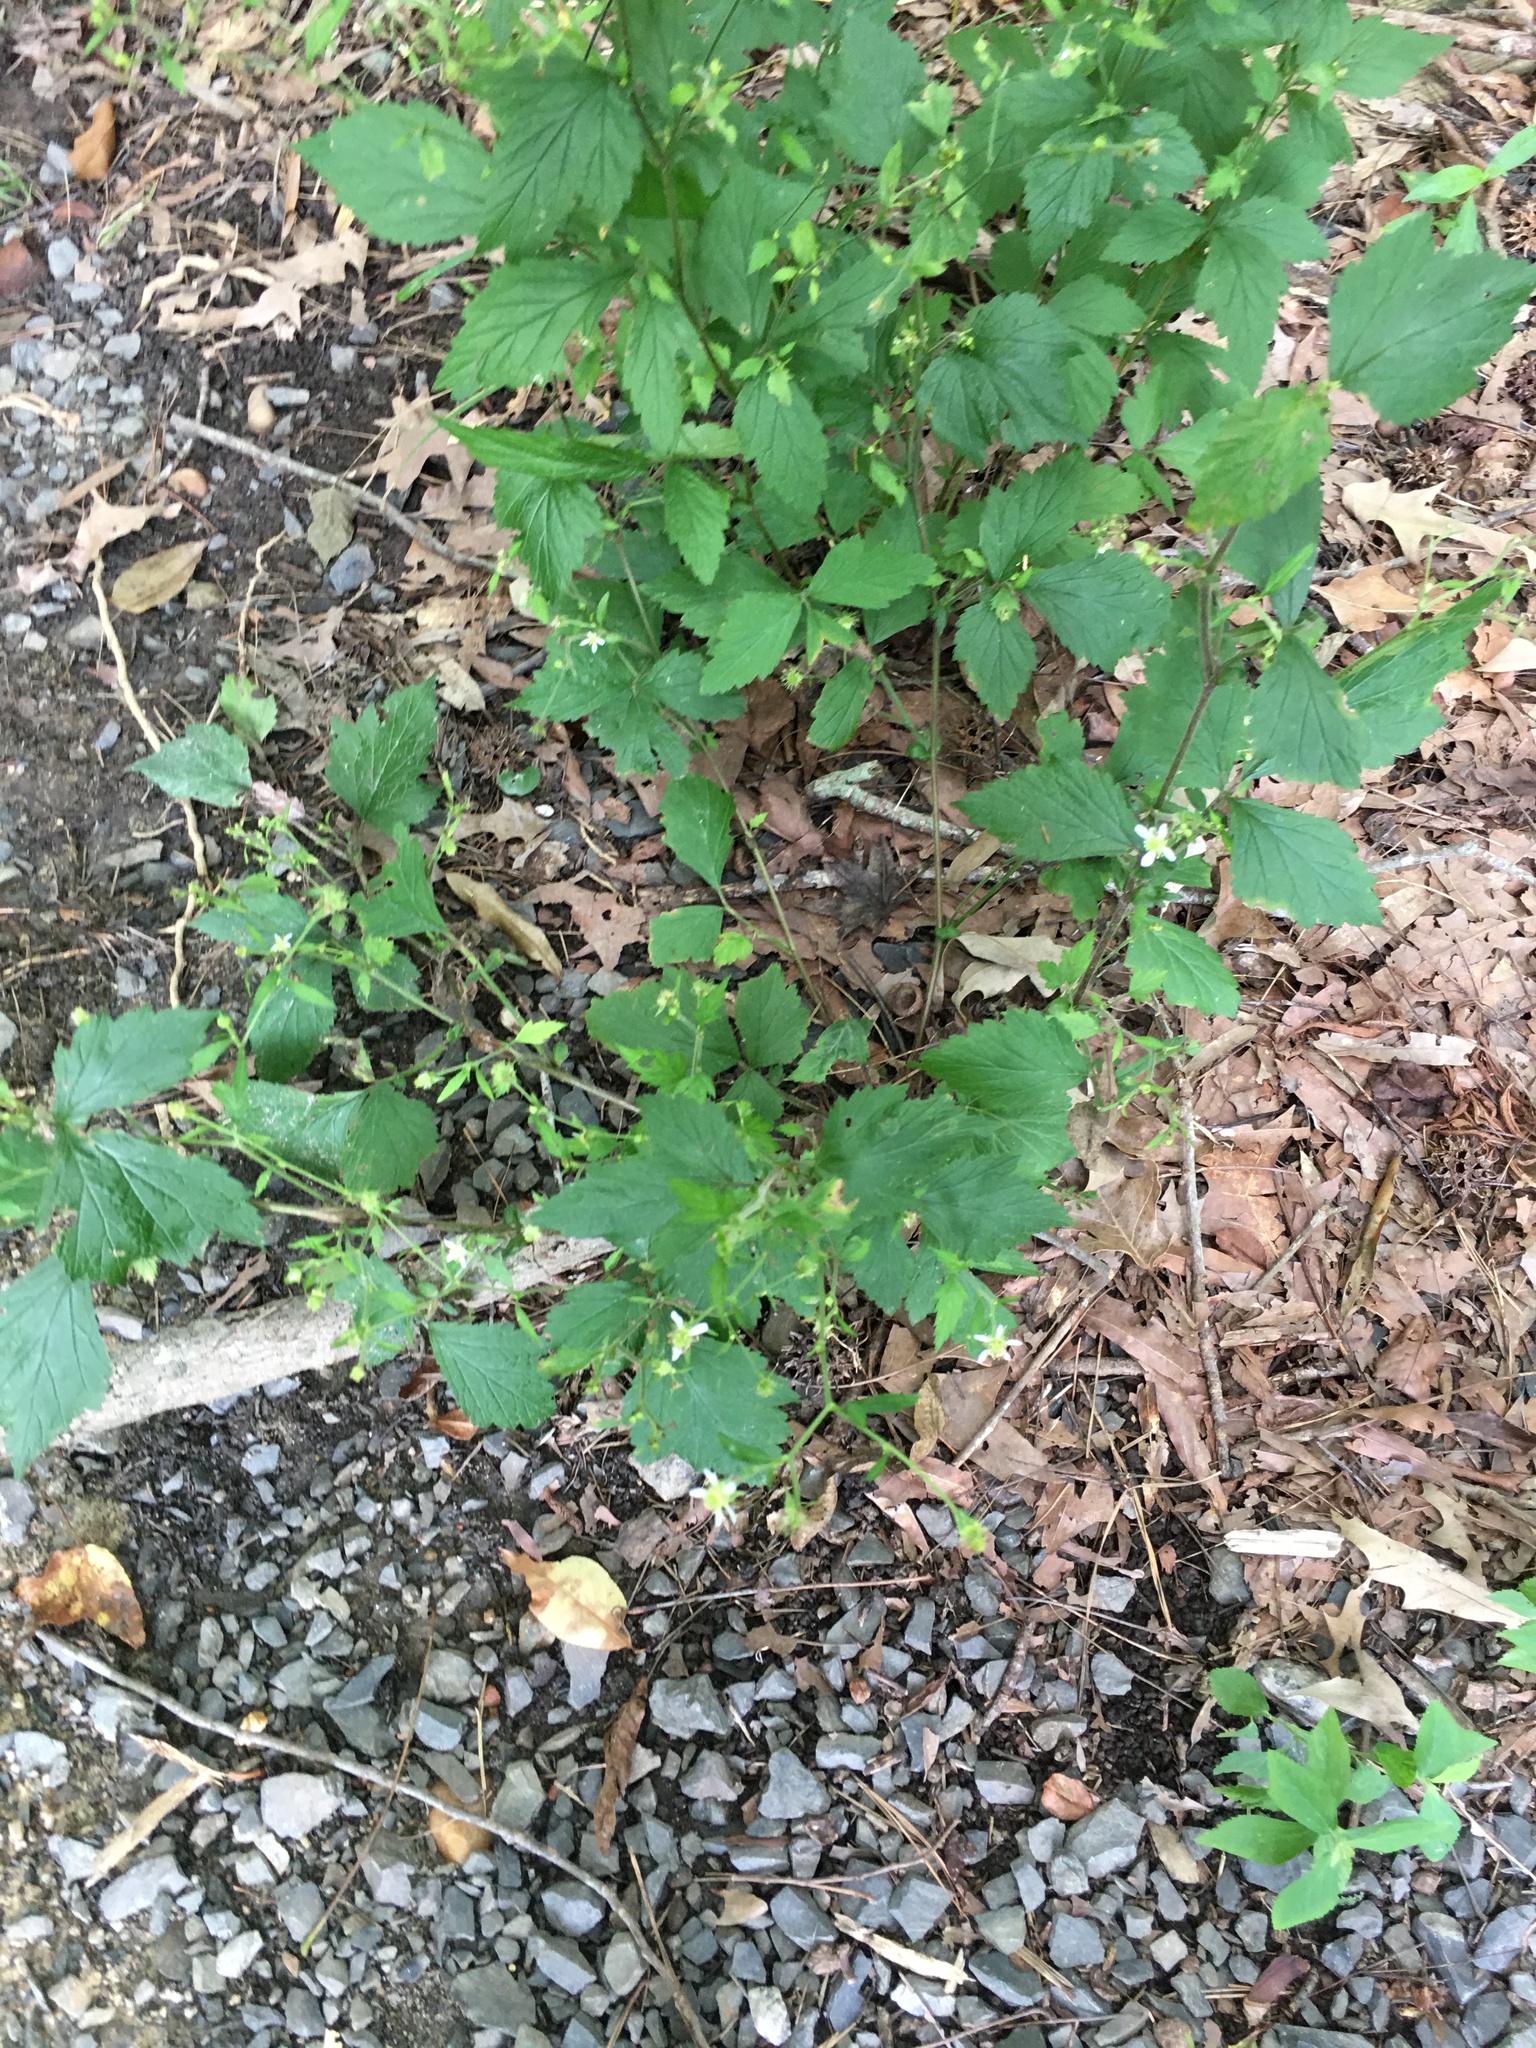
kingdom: Plantae
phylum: Tracheophyta
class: Magnoliopsida
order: Rosales
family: Rosaceae
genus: Geum
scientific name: Geum canadense
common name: White avens
